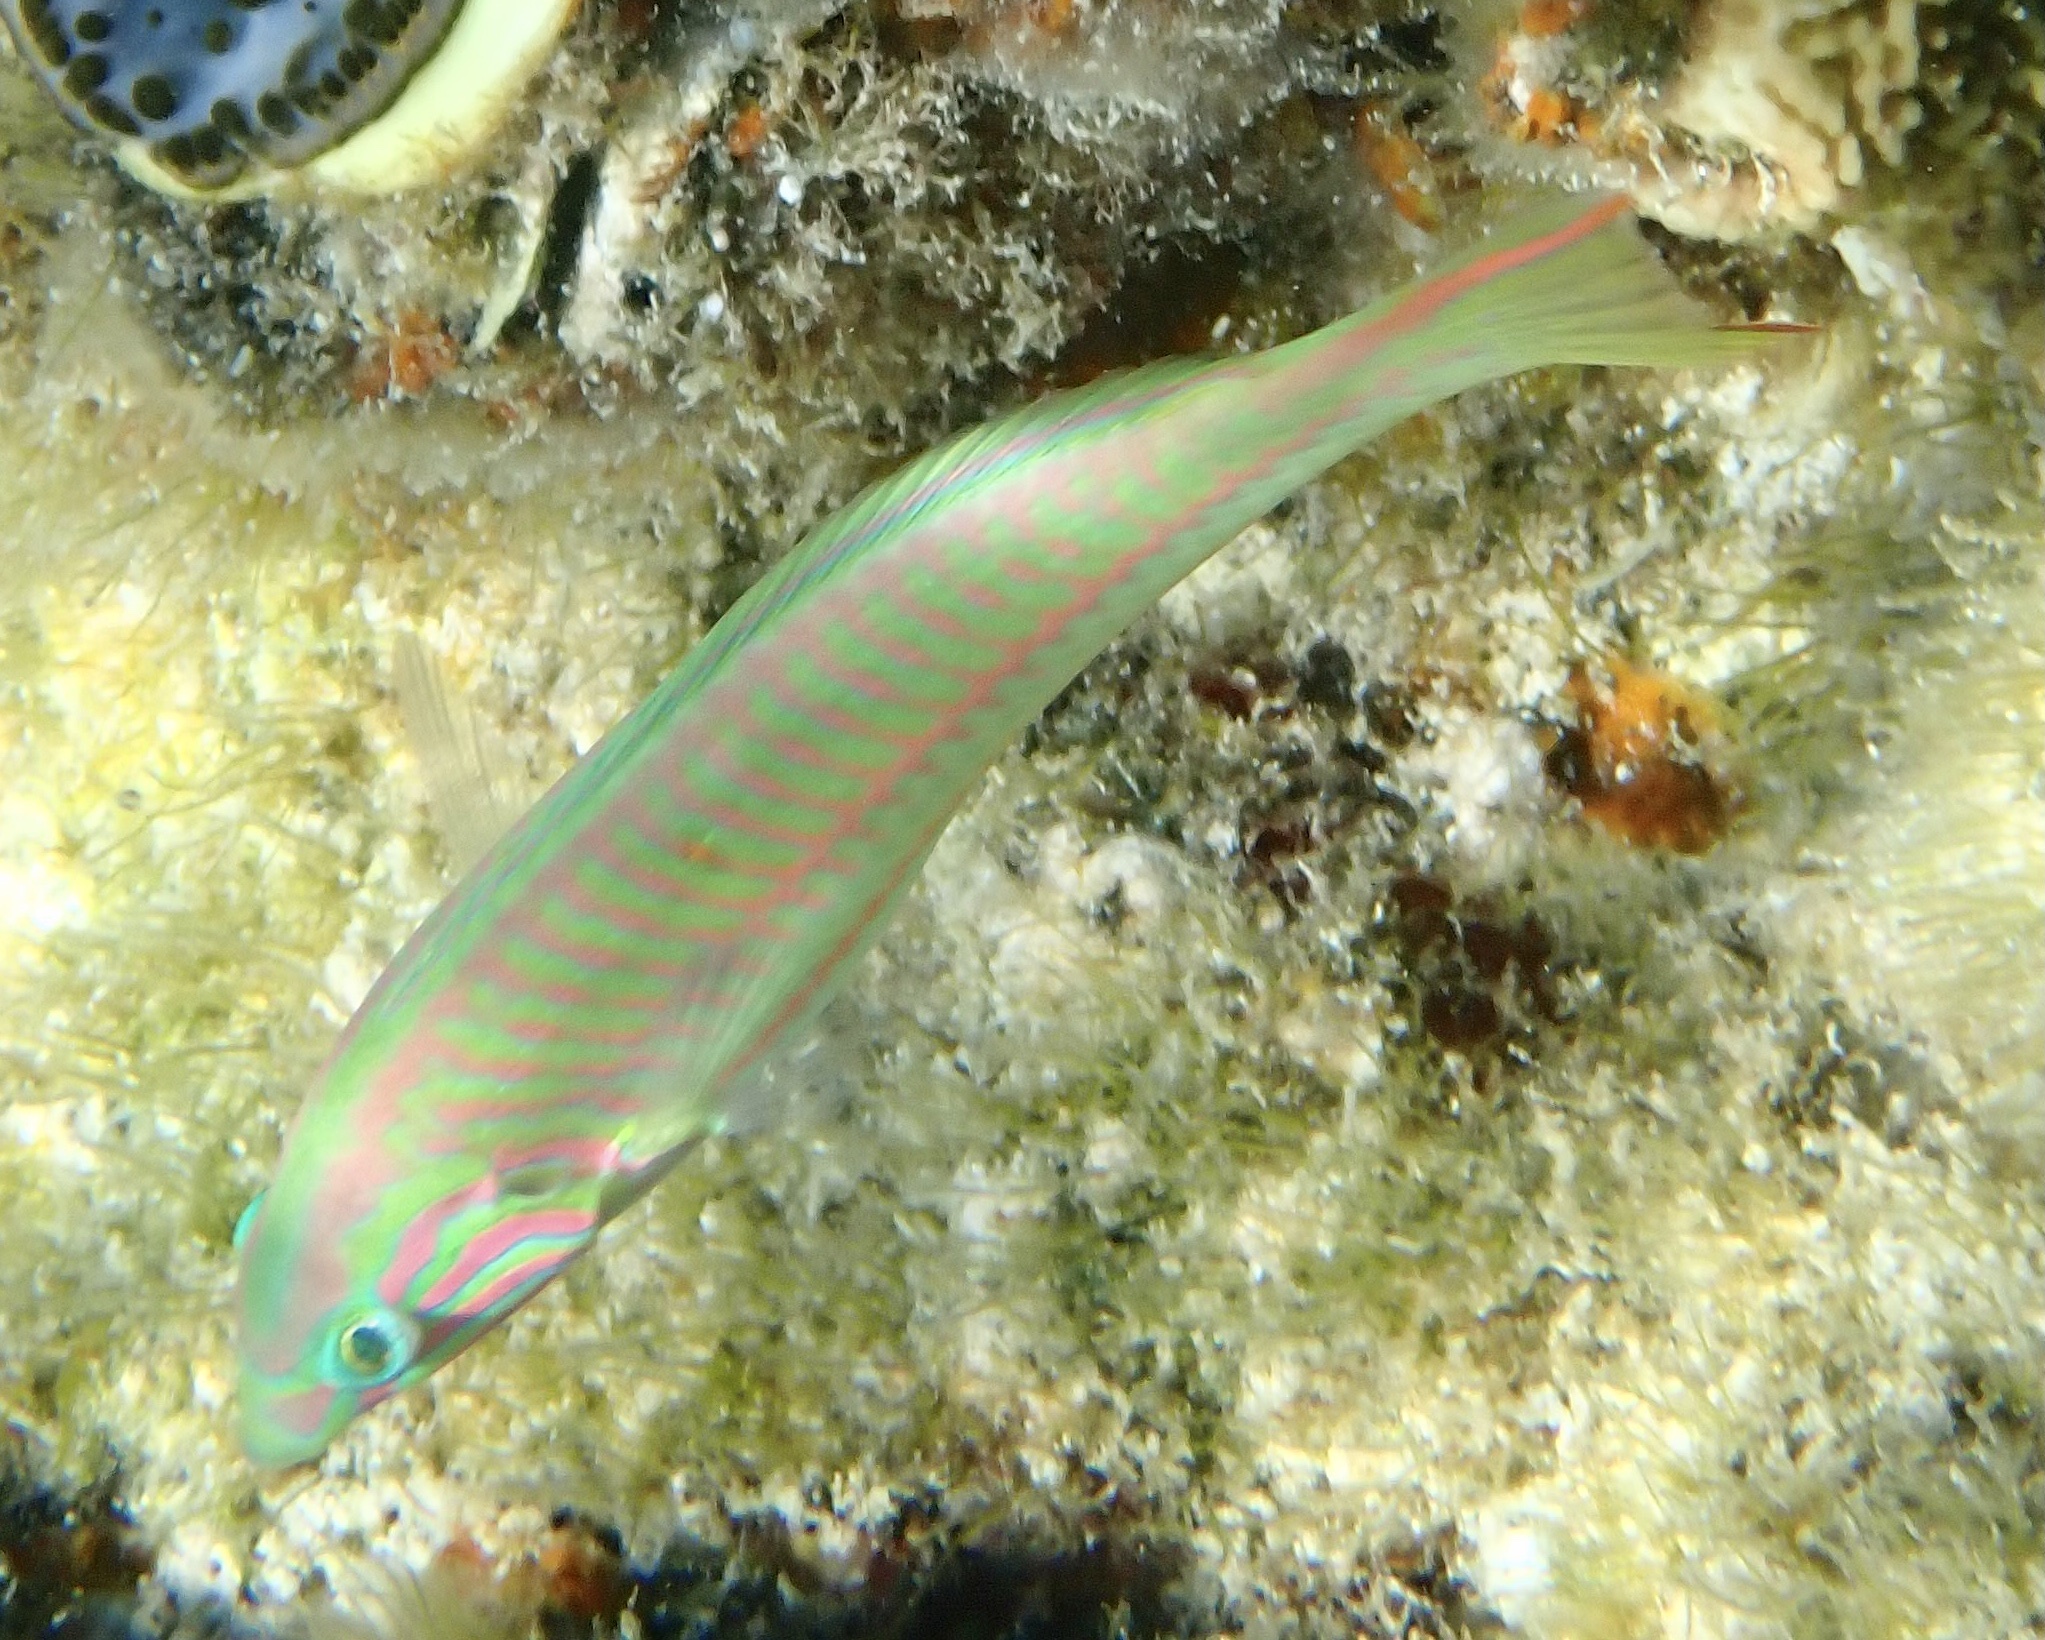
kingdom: Animalia
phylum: Chordata
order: Perciformes
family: Labridae
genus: Thalassoma
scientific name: Thalassoma rueppellii
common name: Klunzinger's wrasse
